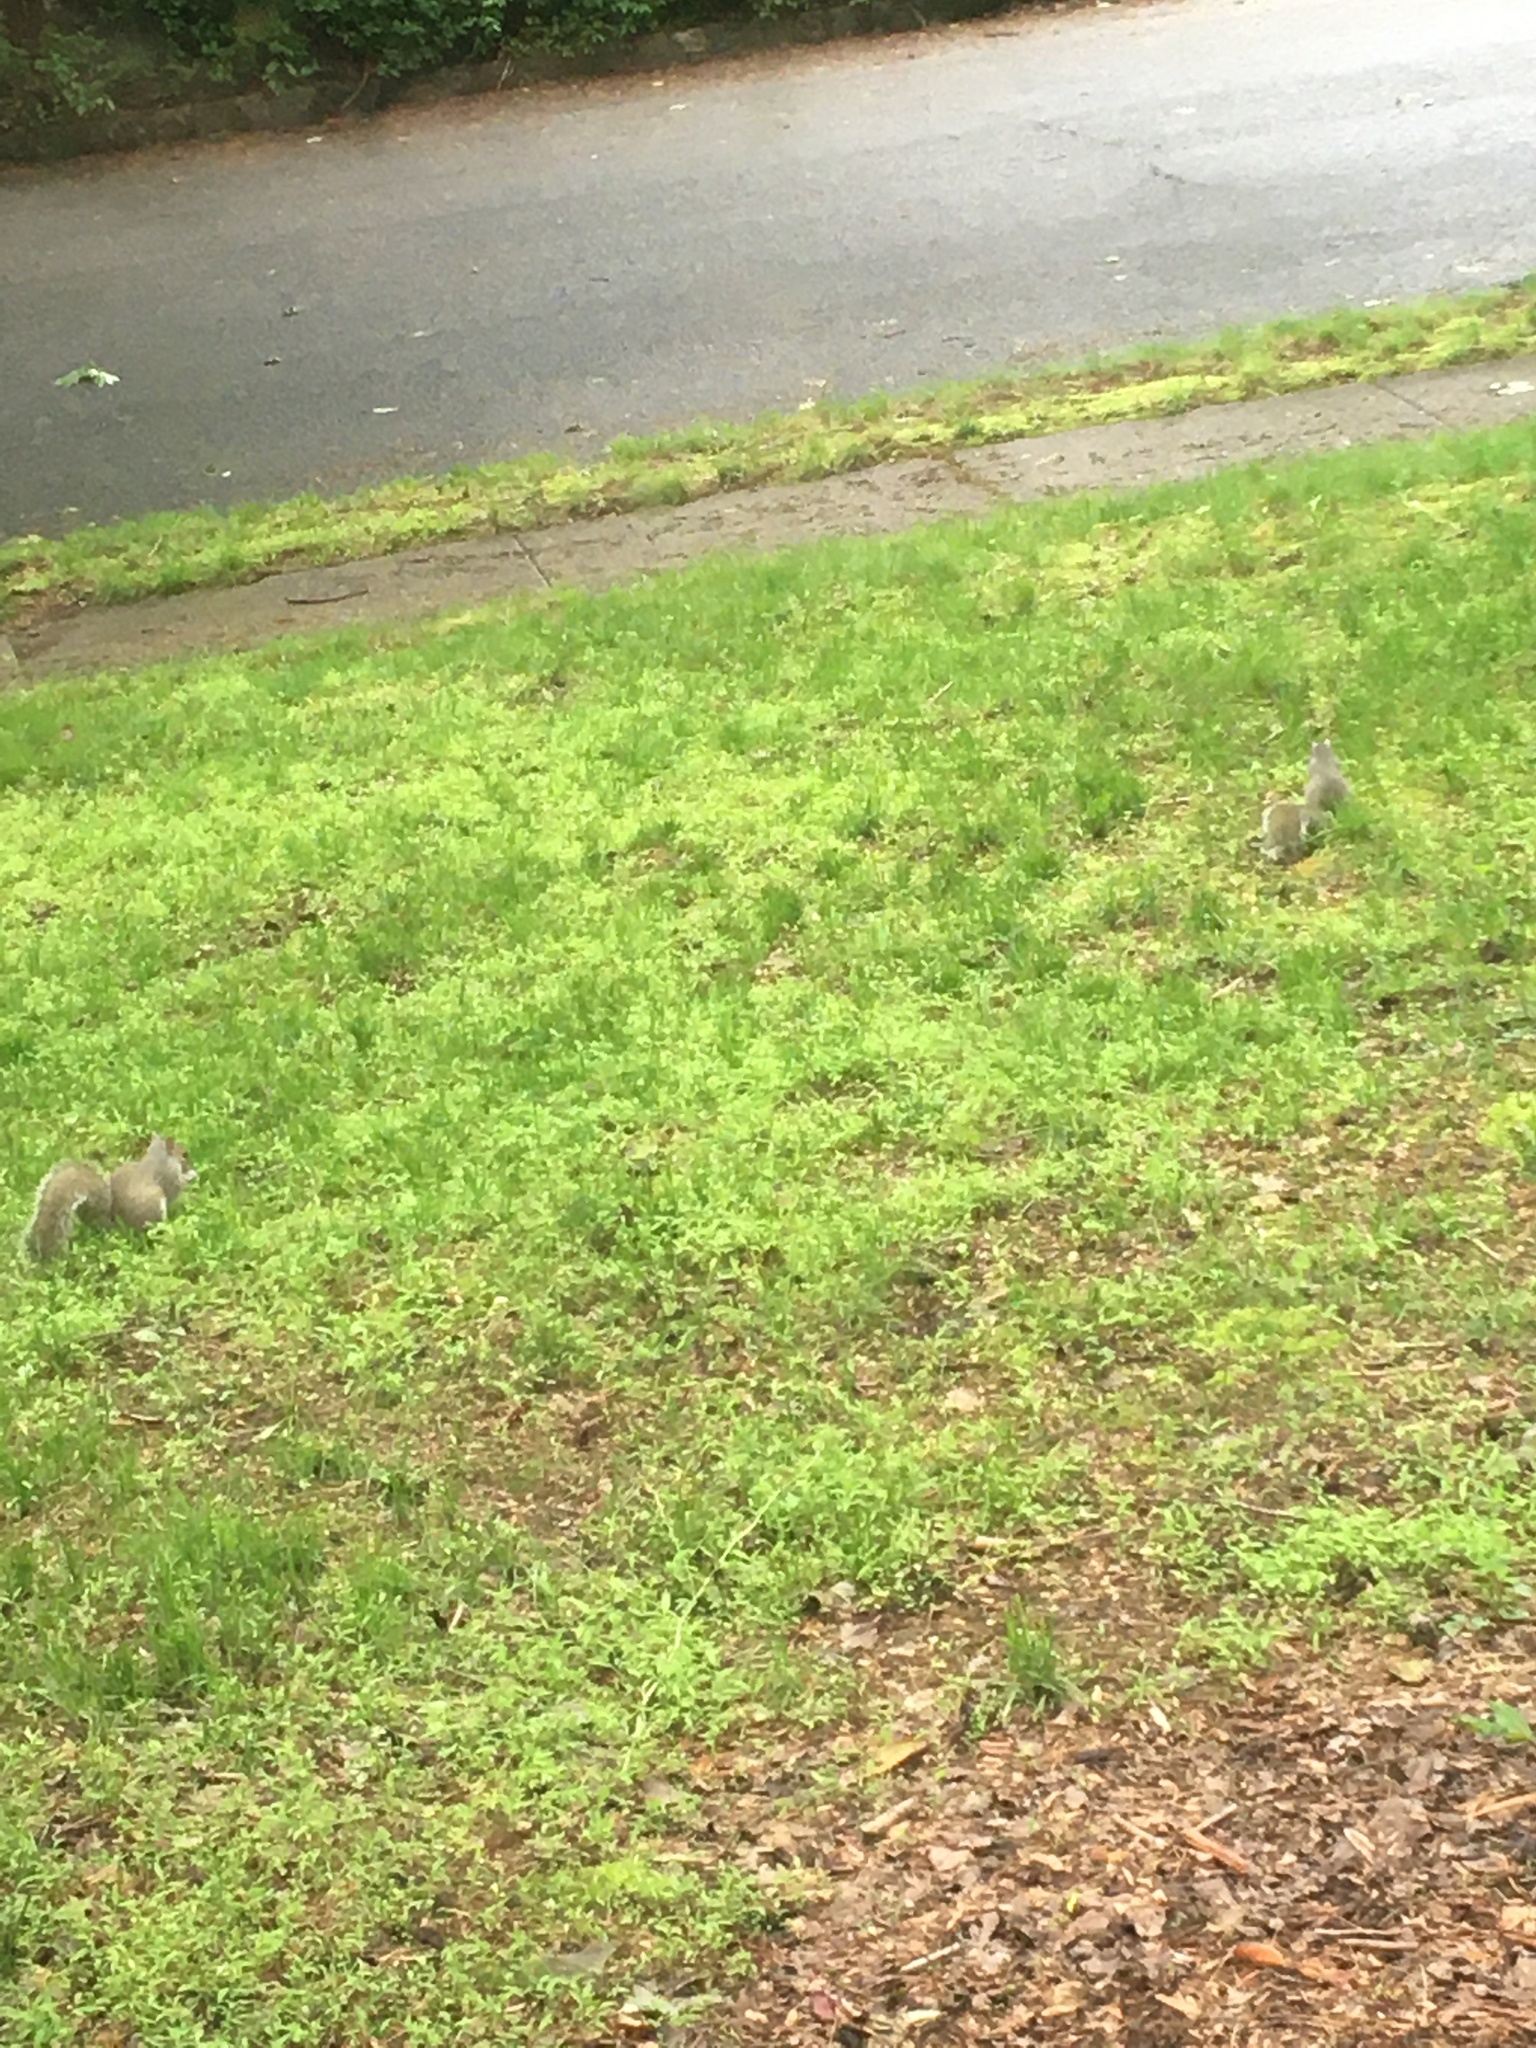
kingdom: Animalia
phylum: Chordata
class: Mammalia
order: Rodentia
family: Sciuridae
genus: Sciurus
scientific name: Sciurus carolinensis
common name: Eastern gray squirrel
